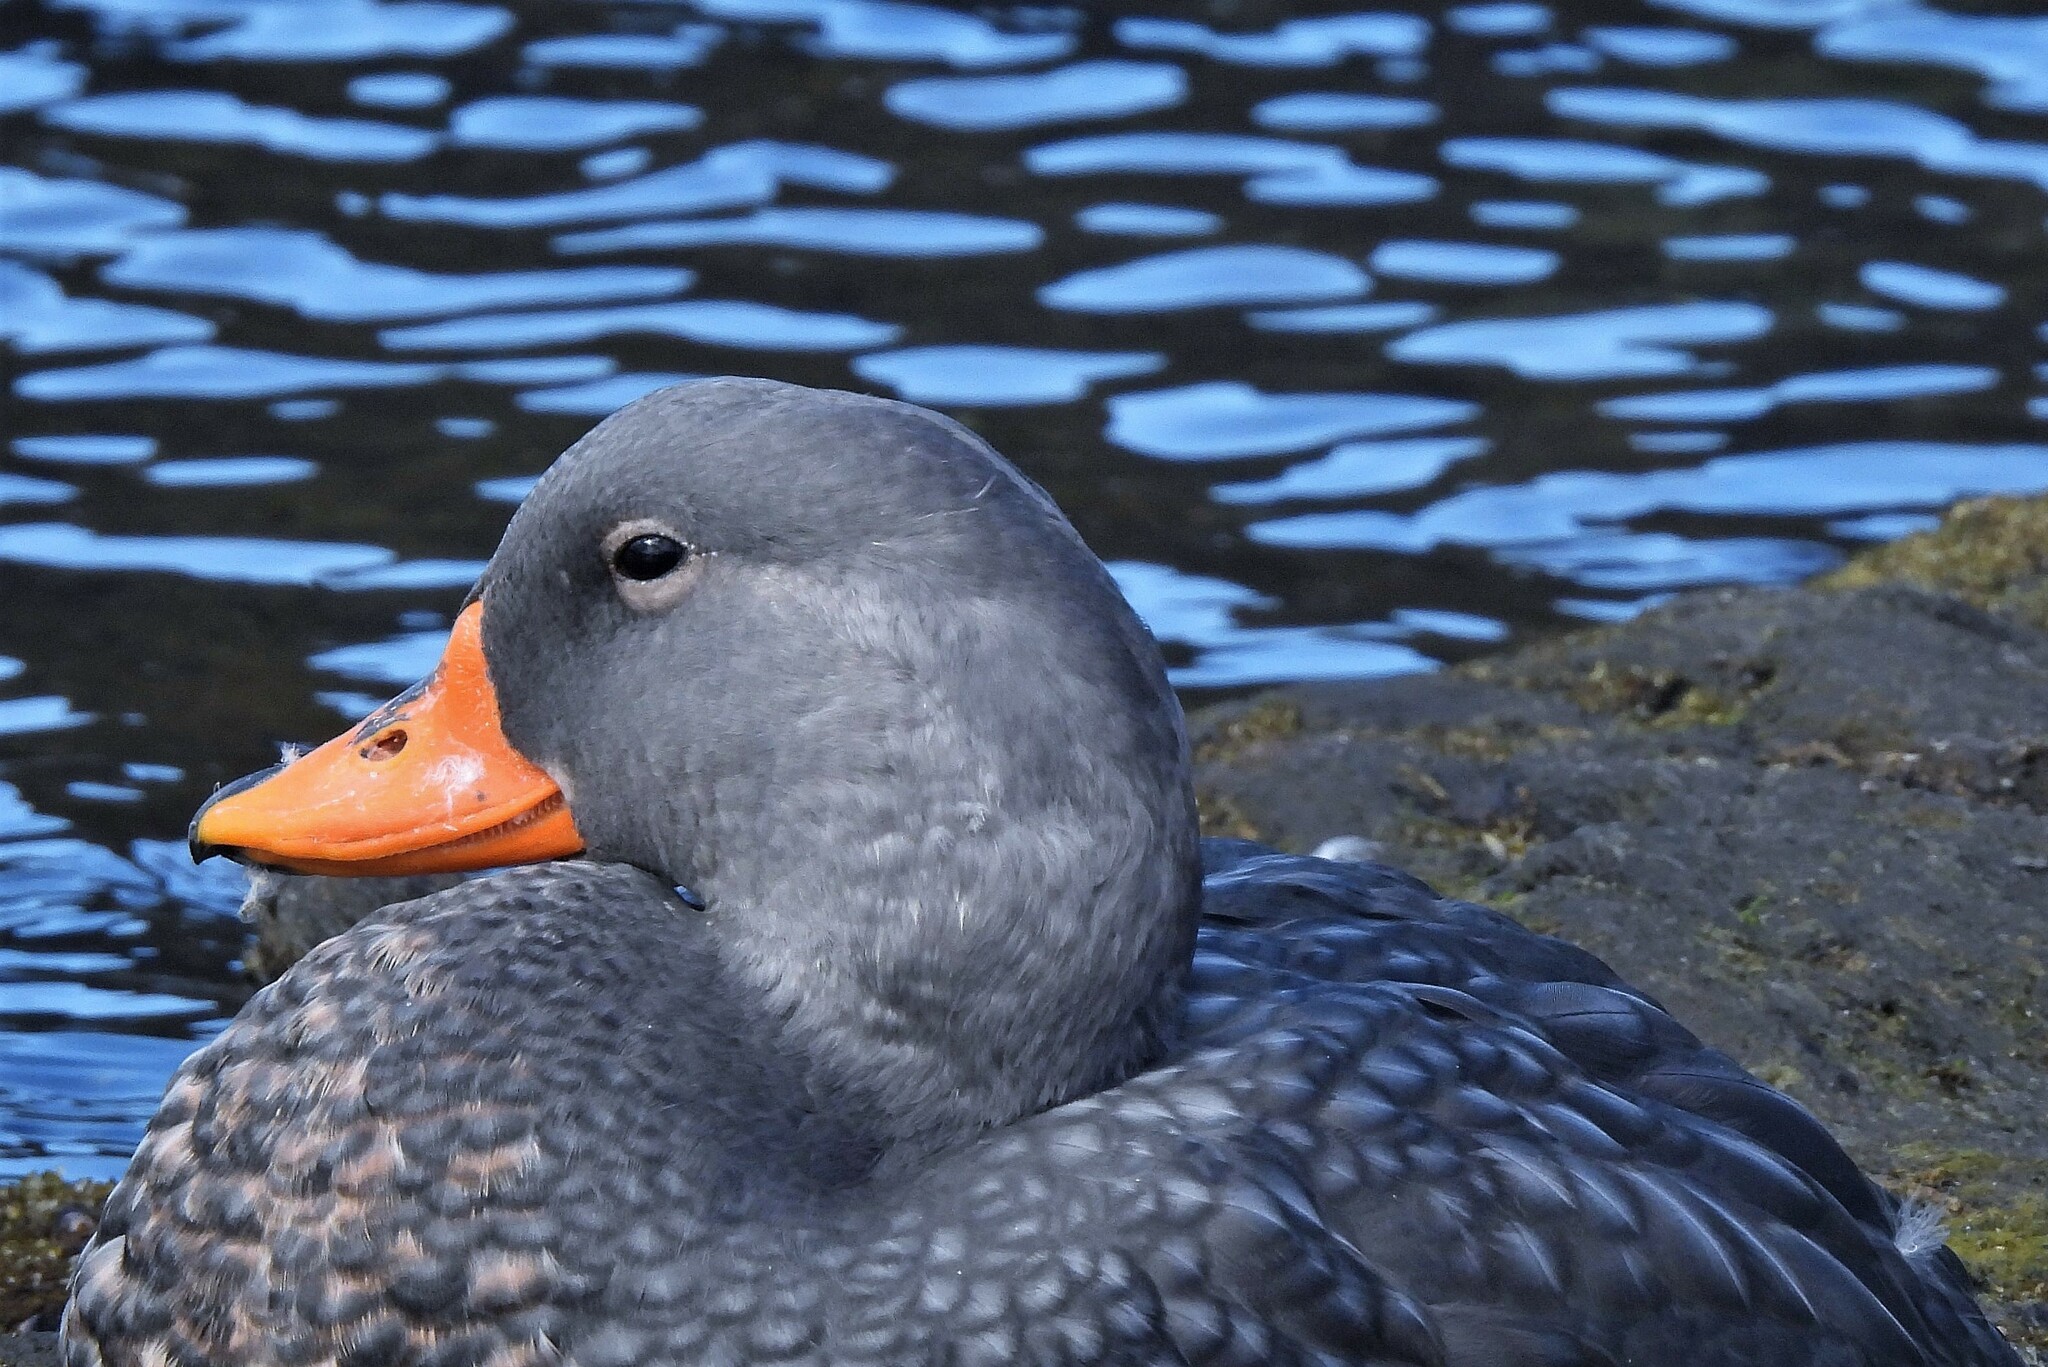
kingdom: Animalia
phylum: Chordata
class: Aves
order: Anseriformes
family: Anatidae
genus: Tachyeres
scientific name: Tachyeres pteneres
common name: Fuegian steamer duck
